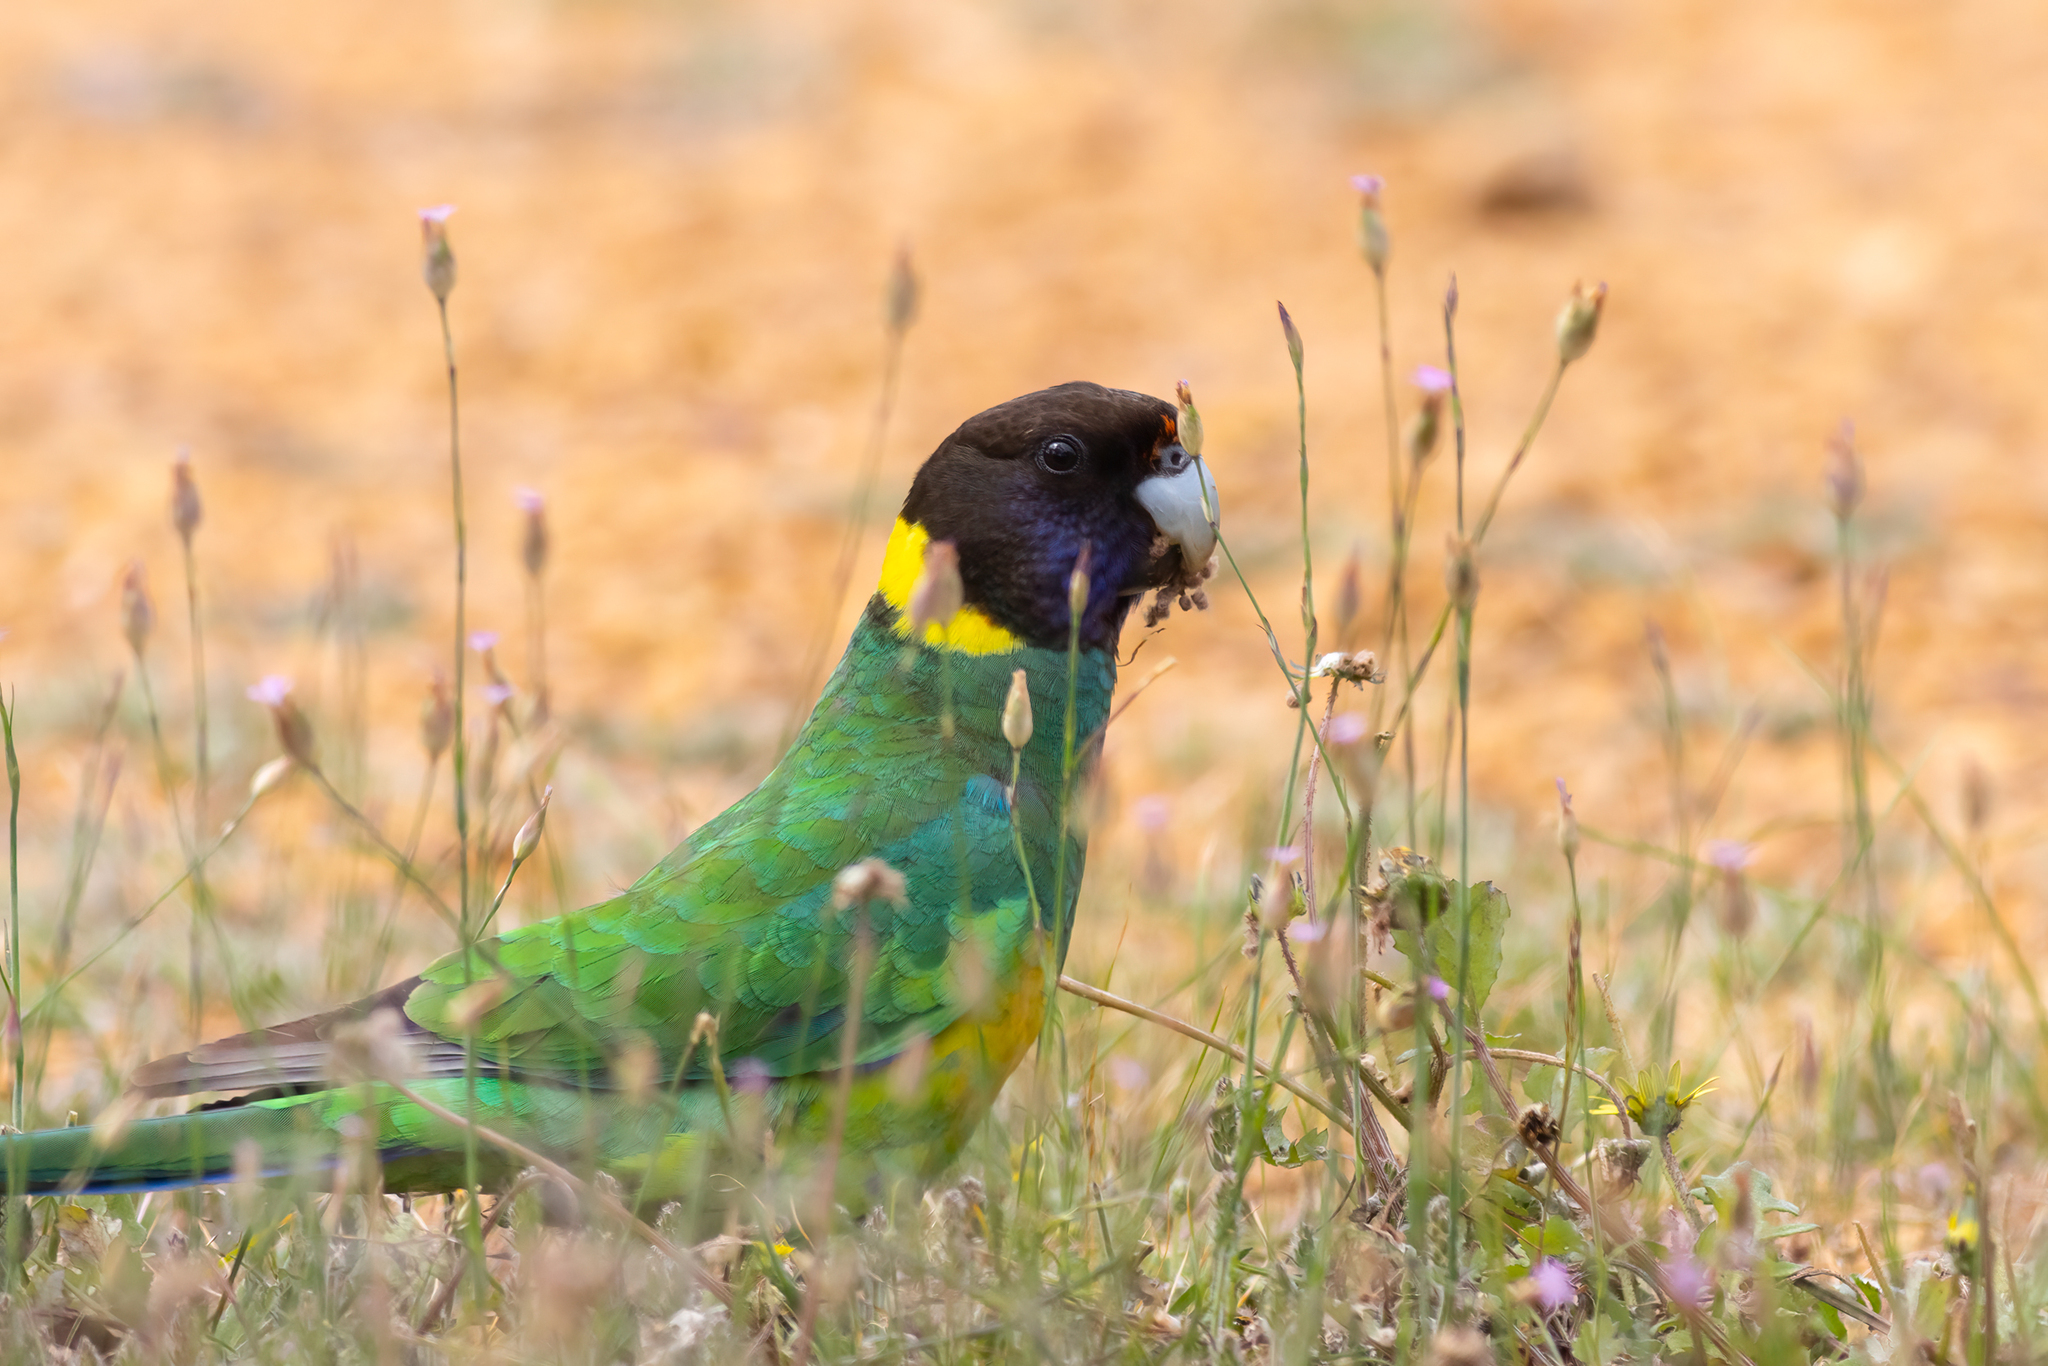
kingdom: Animalia
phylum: Chordata
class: Aves
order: Psittaciformes
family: Psittacidae
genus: Barnardius
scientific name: Barnardius zonarius
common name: Australian ringneck
